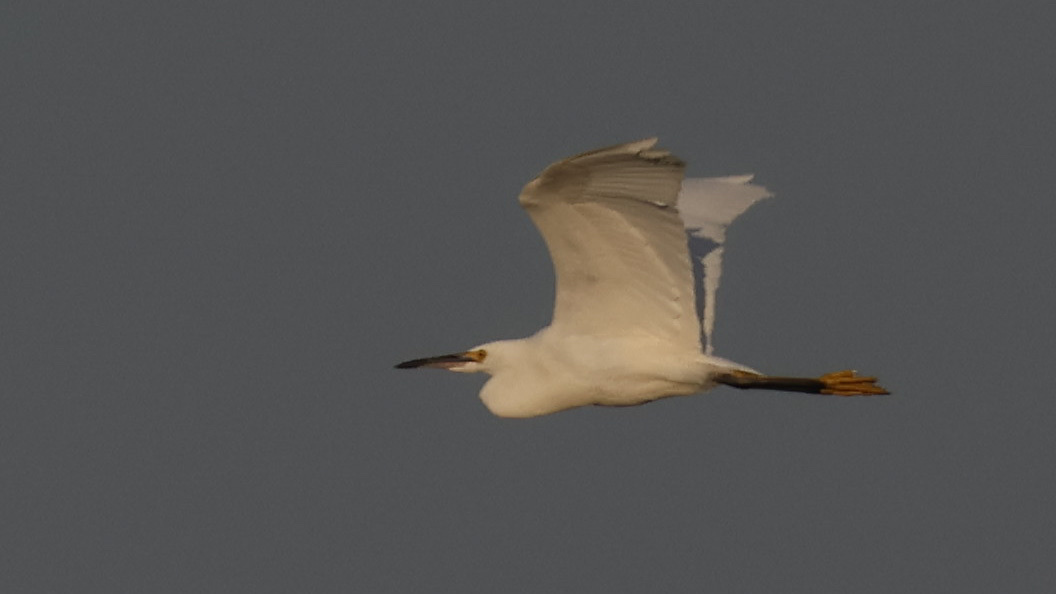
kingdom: Animalia
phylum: Chordata
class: Aves
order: Pelecaniformes
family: Ardeidae
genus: Egretta
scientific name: Egretta thula
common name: Snowy egret
